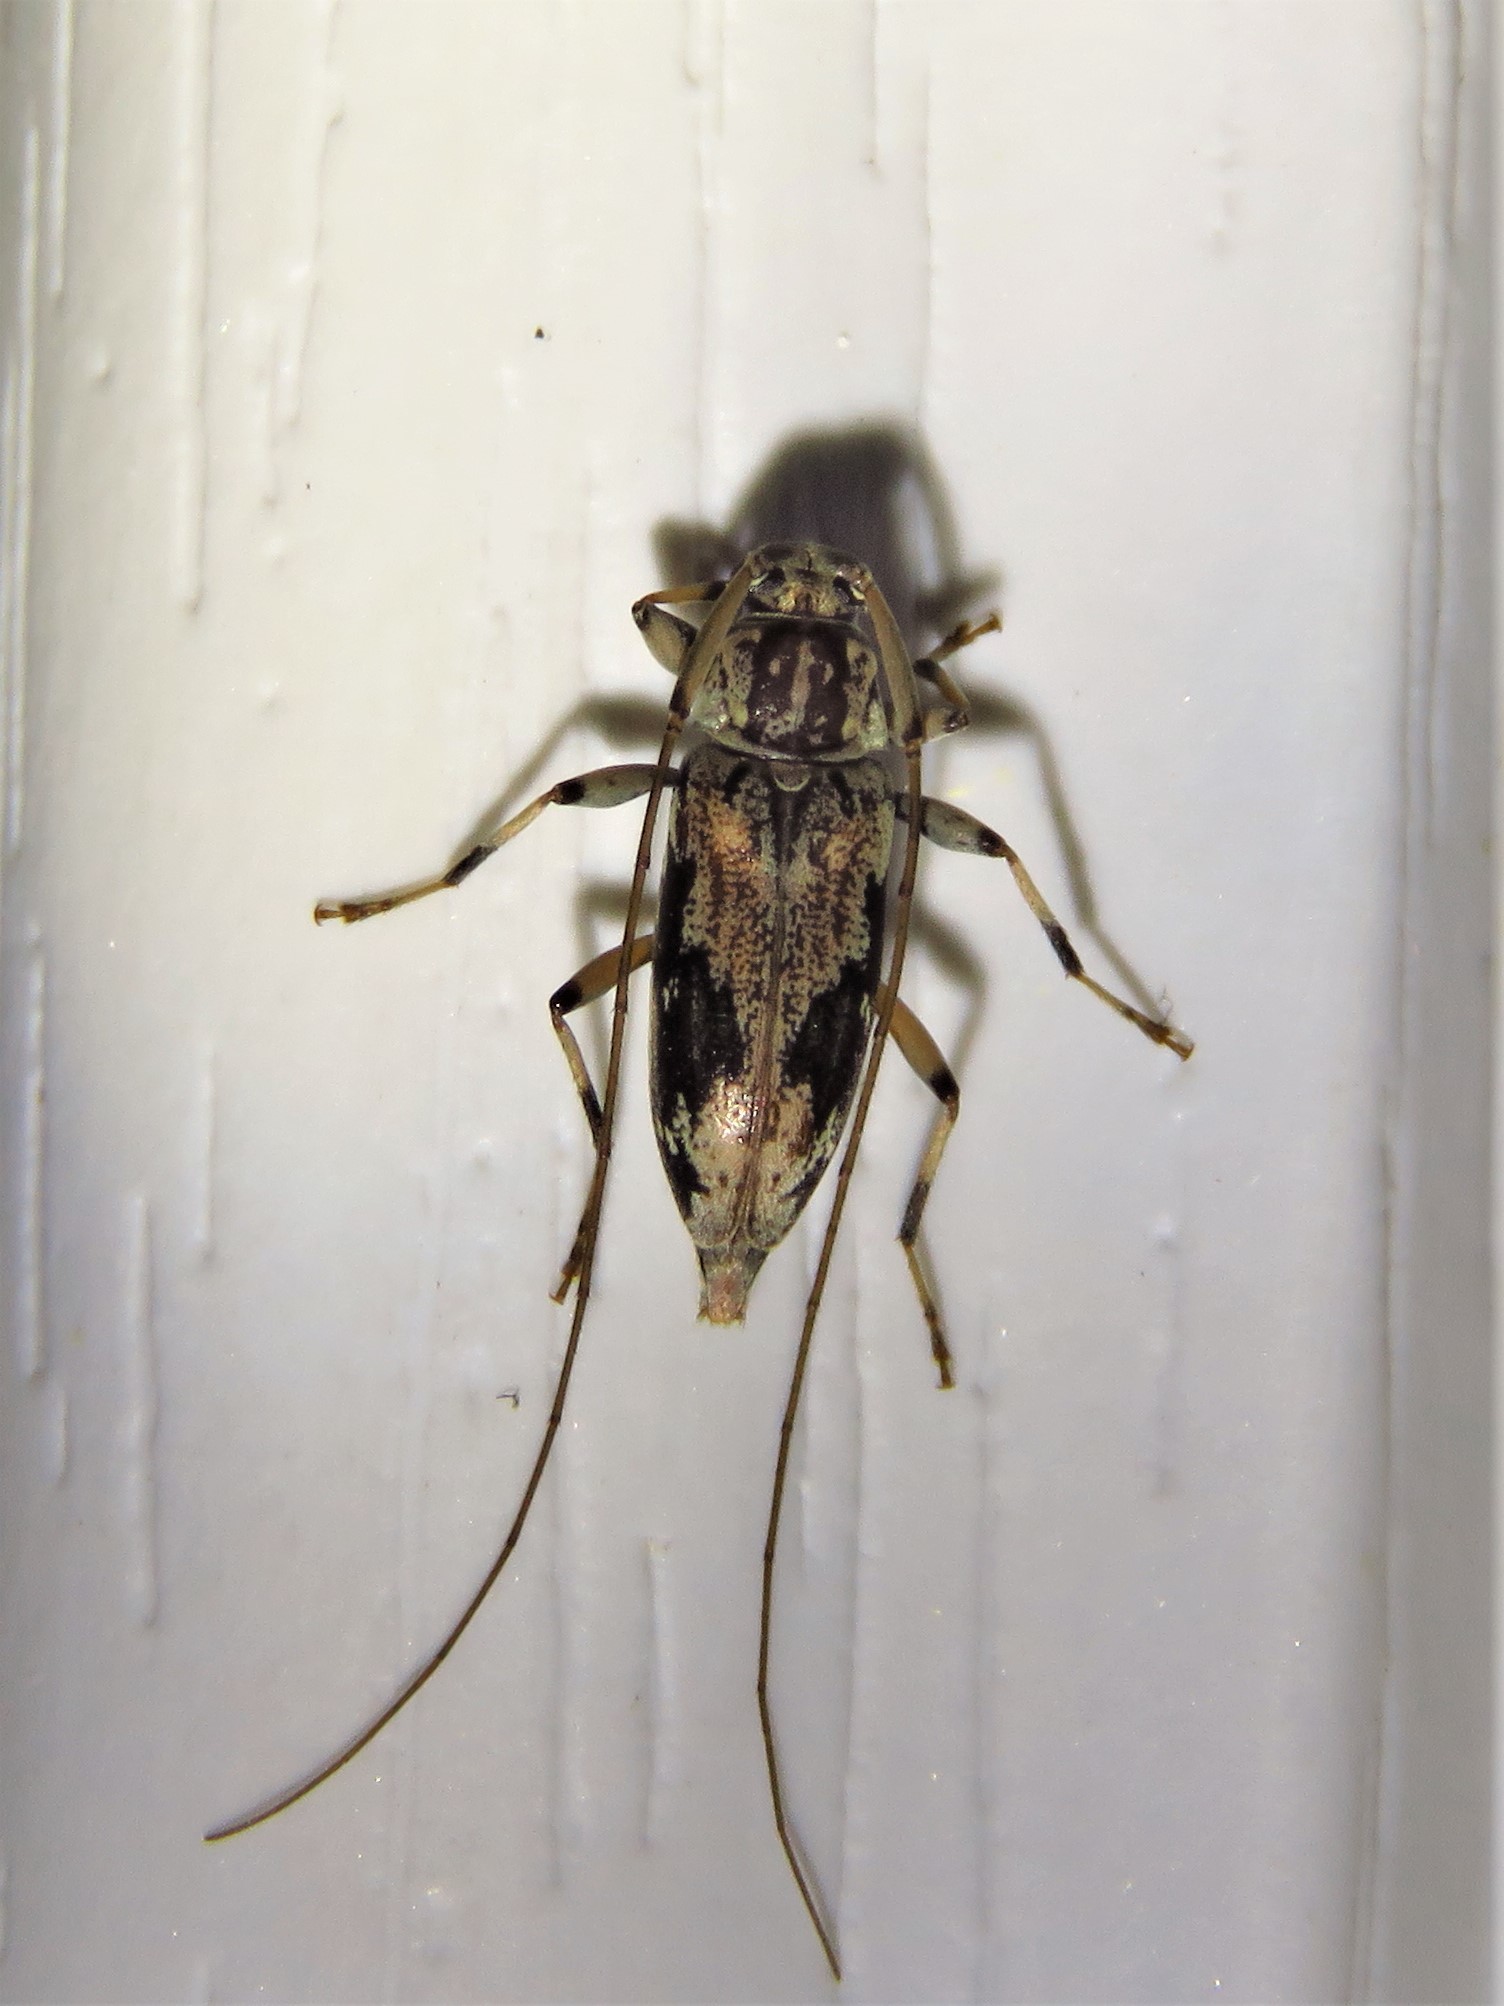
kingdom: Animalia
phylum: Arthropoda
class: Insecta
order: Coleoptera
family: Cerambycidae
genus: Lepturges
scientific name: Lepturges angulatus
